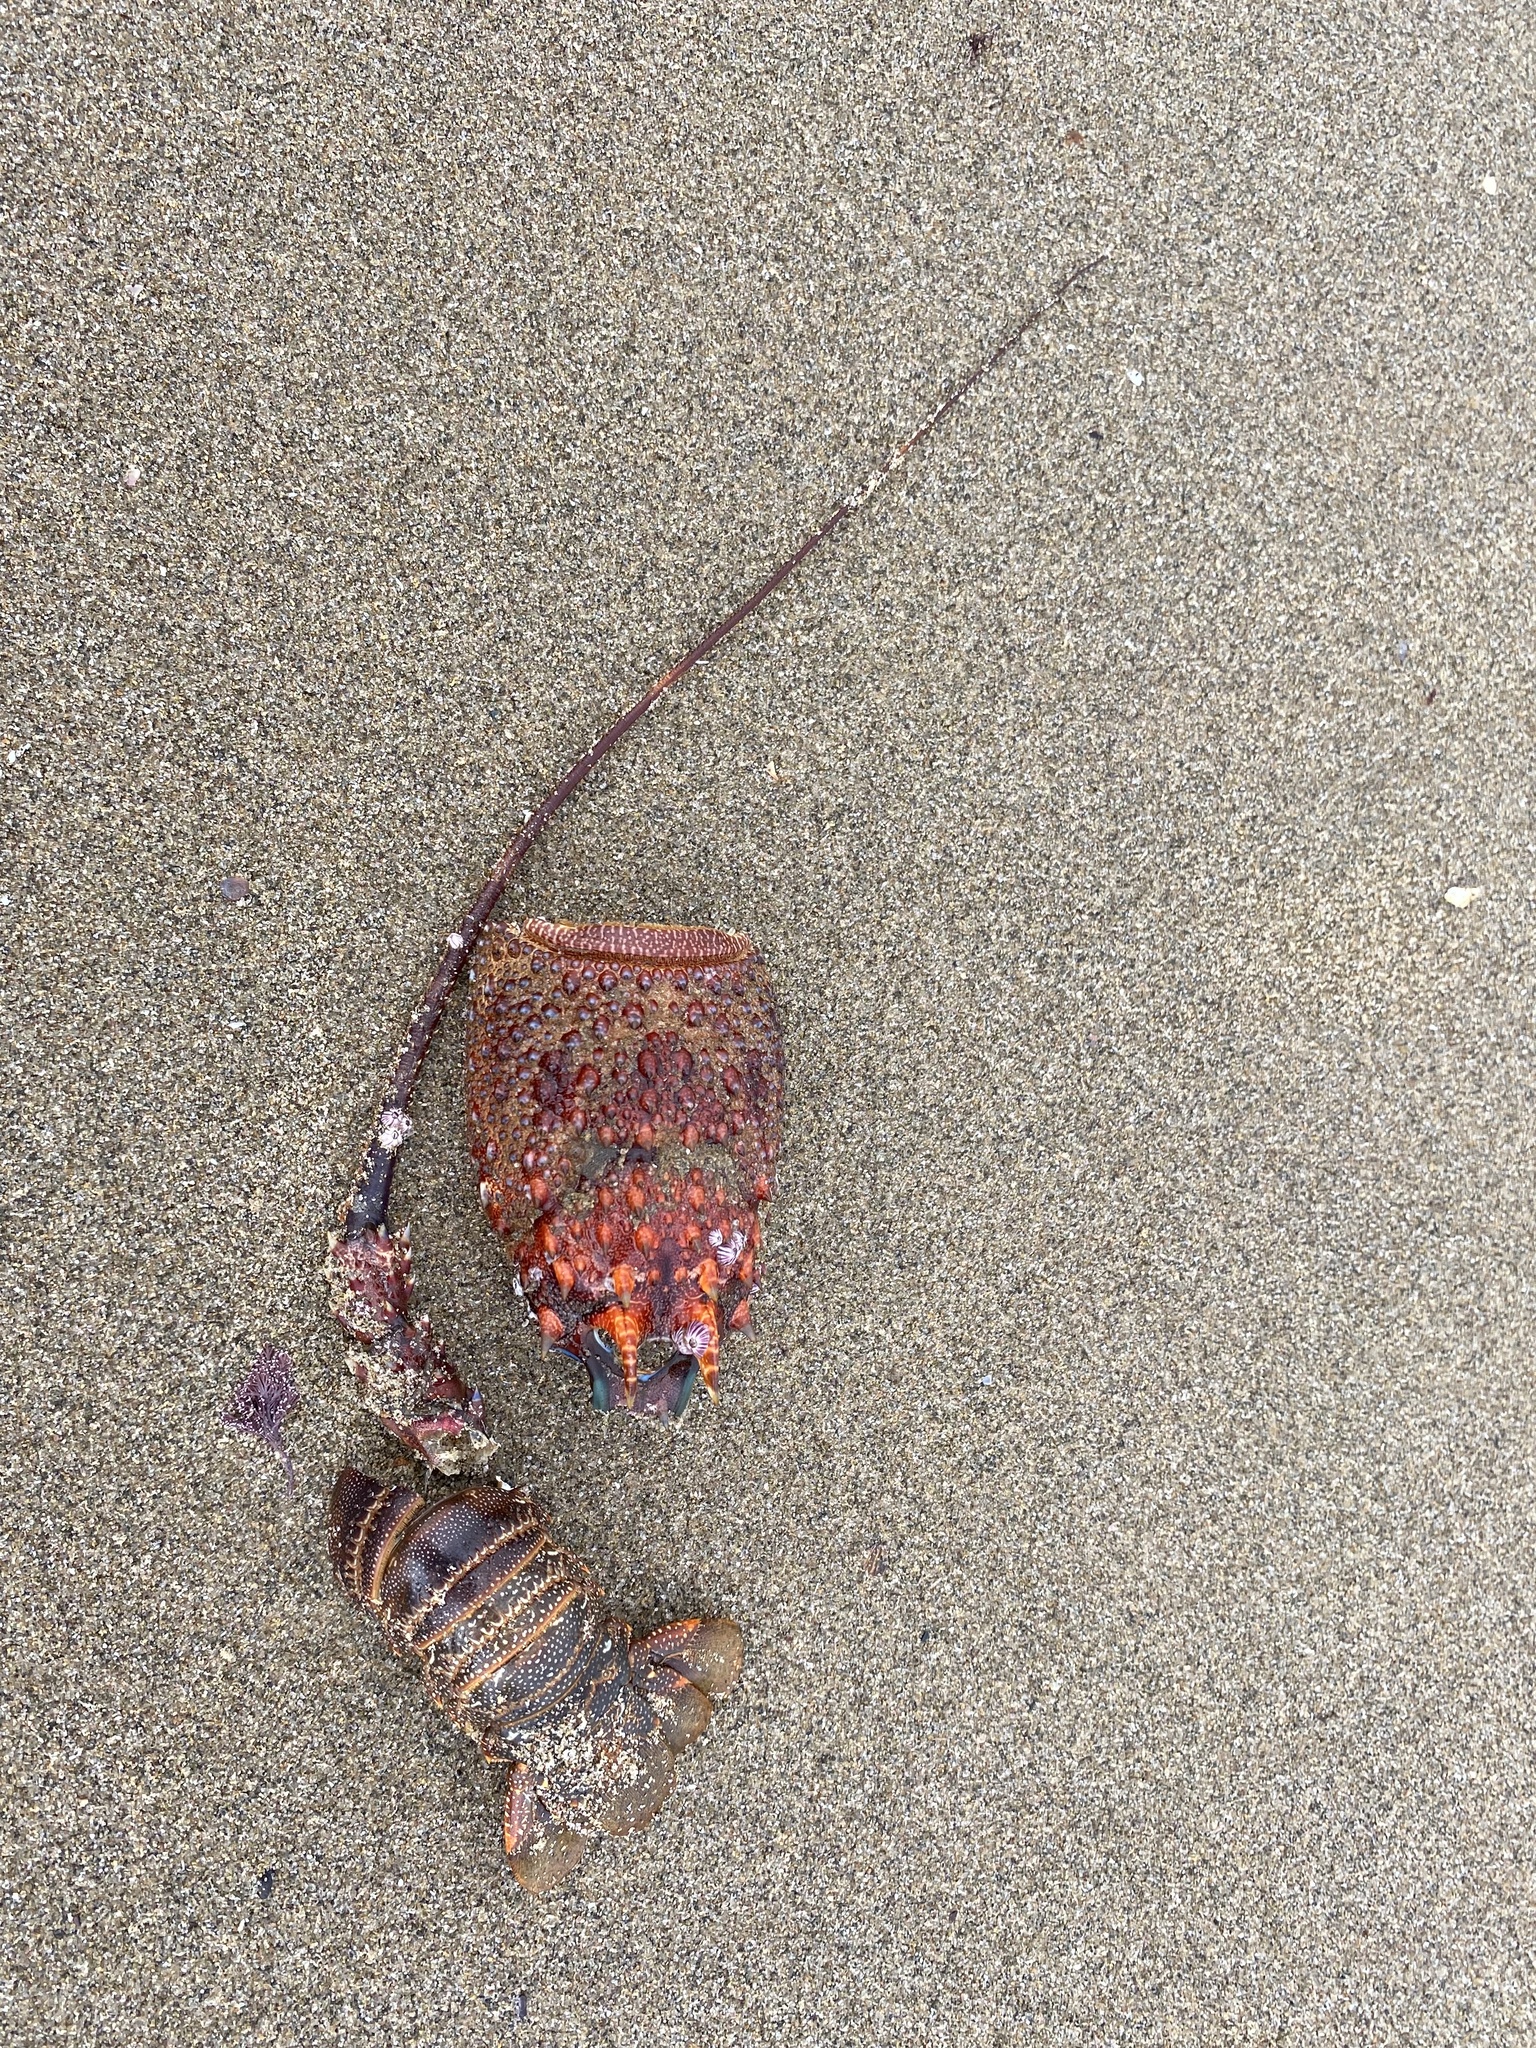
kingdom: Animalia
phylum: Arthropoda
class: Malacostraca
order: Decapoda
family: Palinuridae
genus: Panulirus
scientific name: Panulirus homarus
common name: Scalloped spiny lobster
